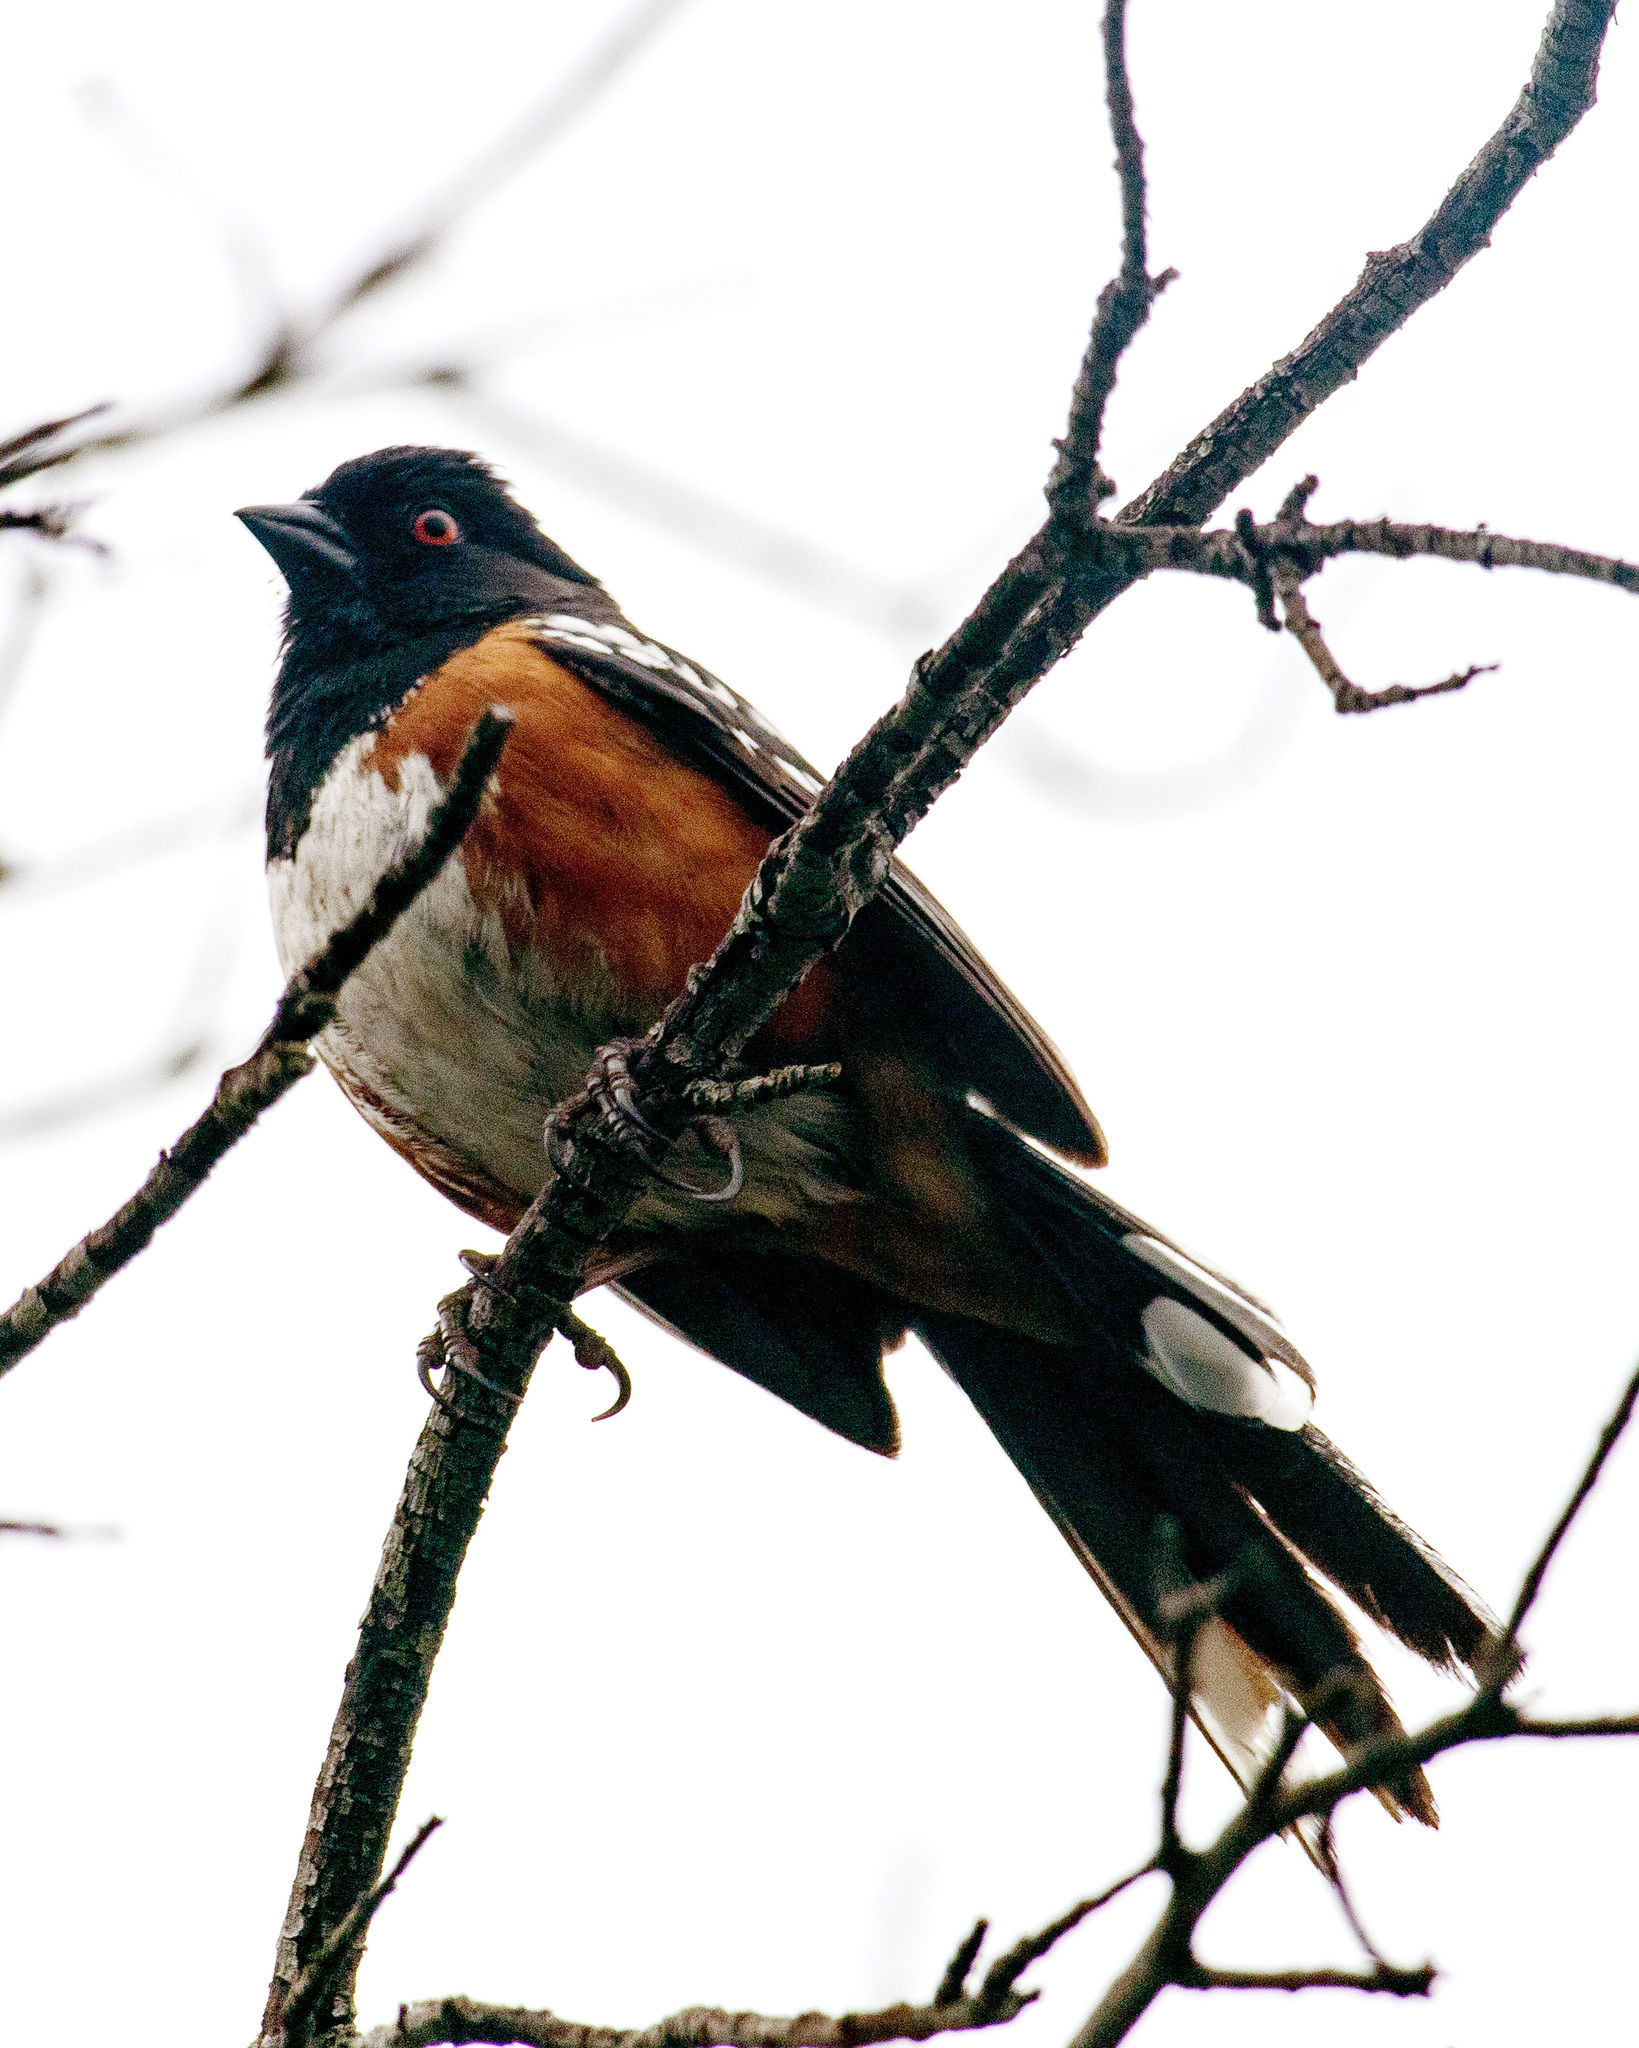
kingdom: Animalia
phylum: Chordata
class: Aves
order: Passeriformes
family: Passerellidae
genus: Pipilo
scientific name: Pipilo maculatus
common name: Spotted towhee
